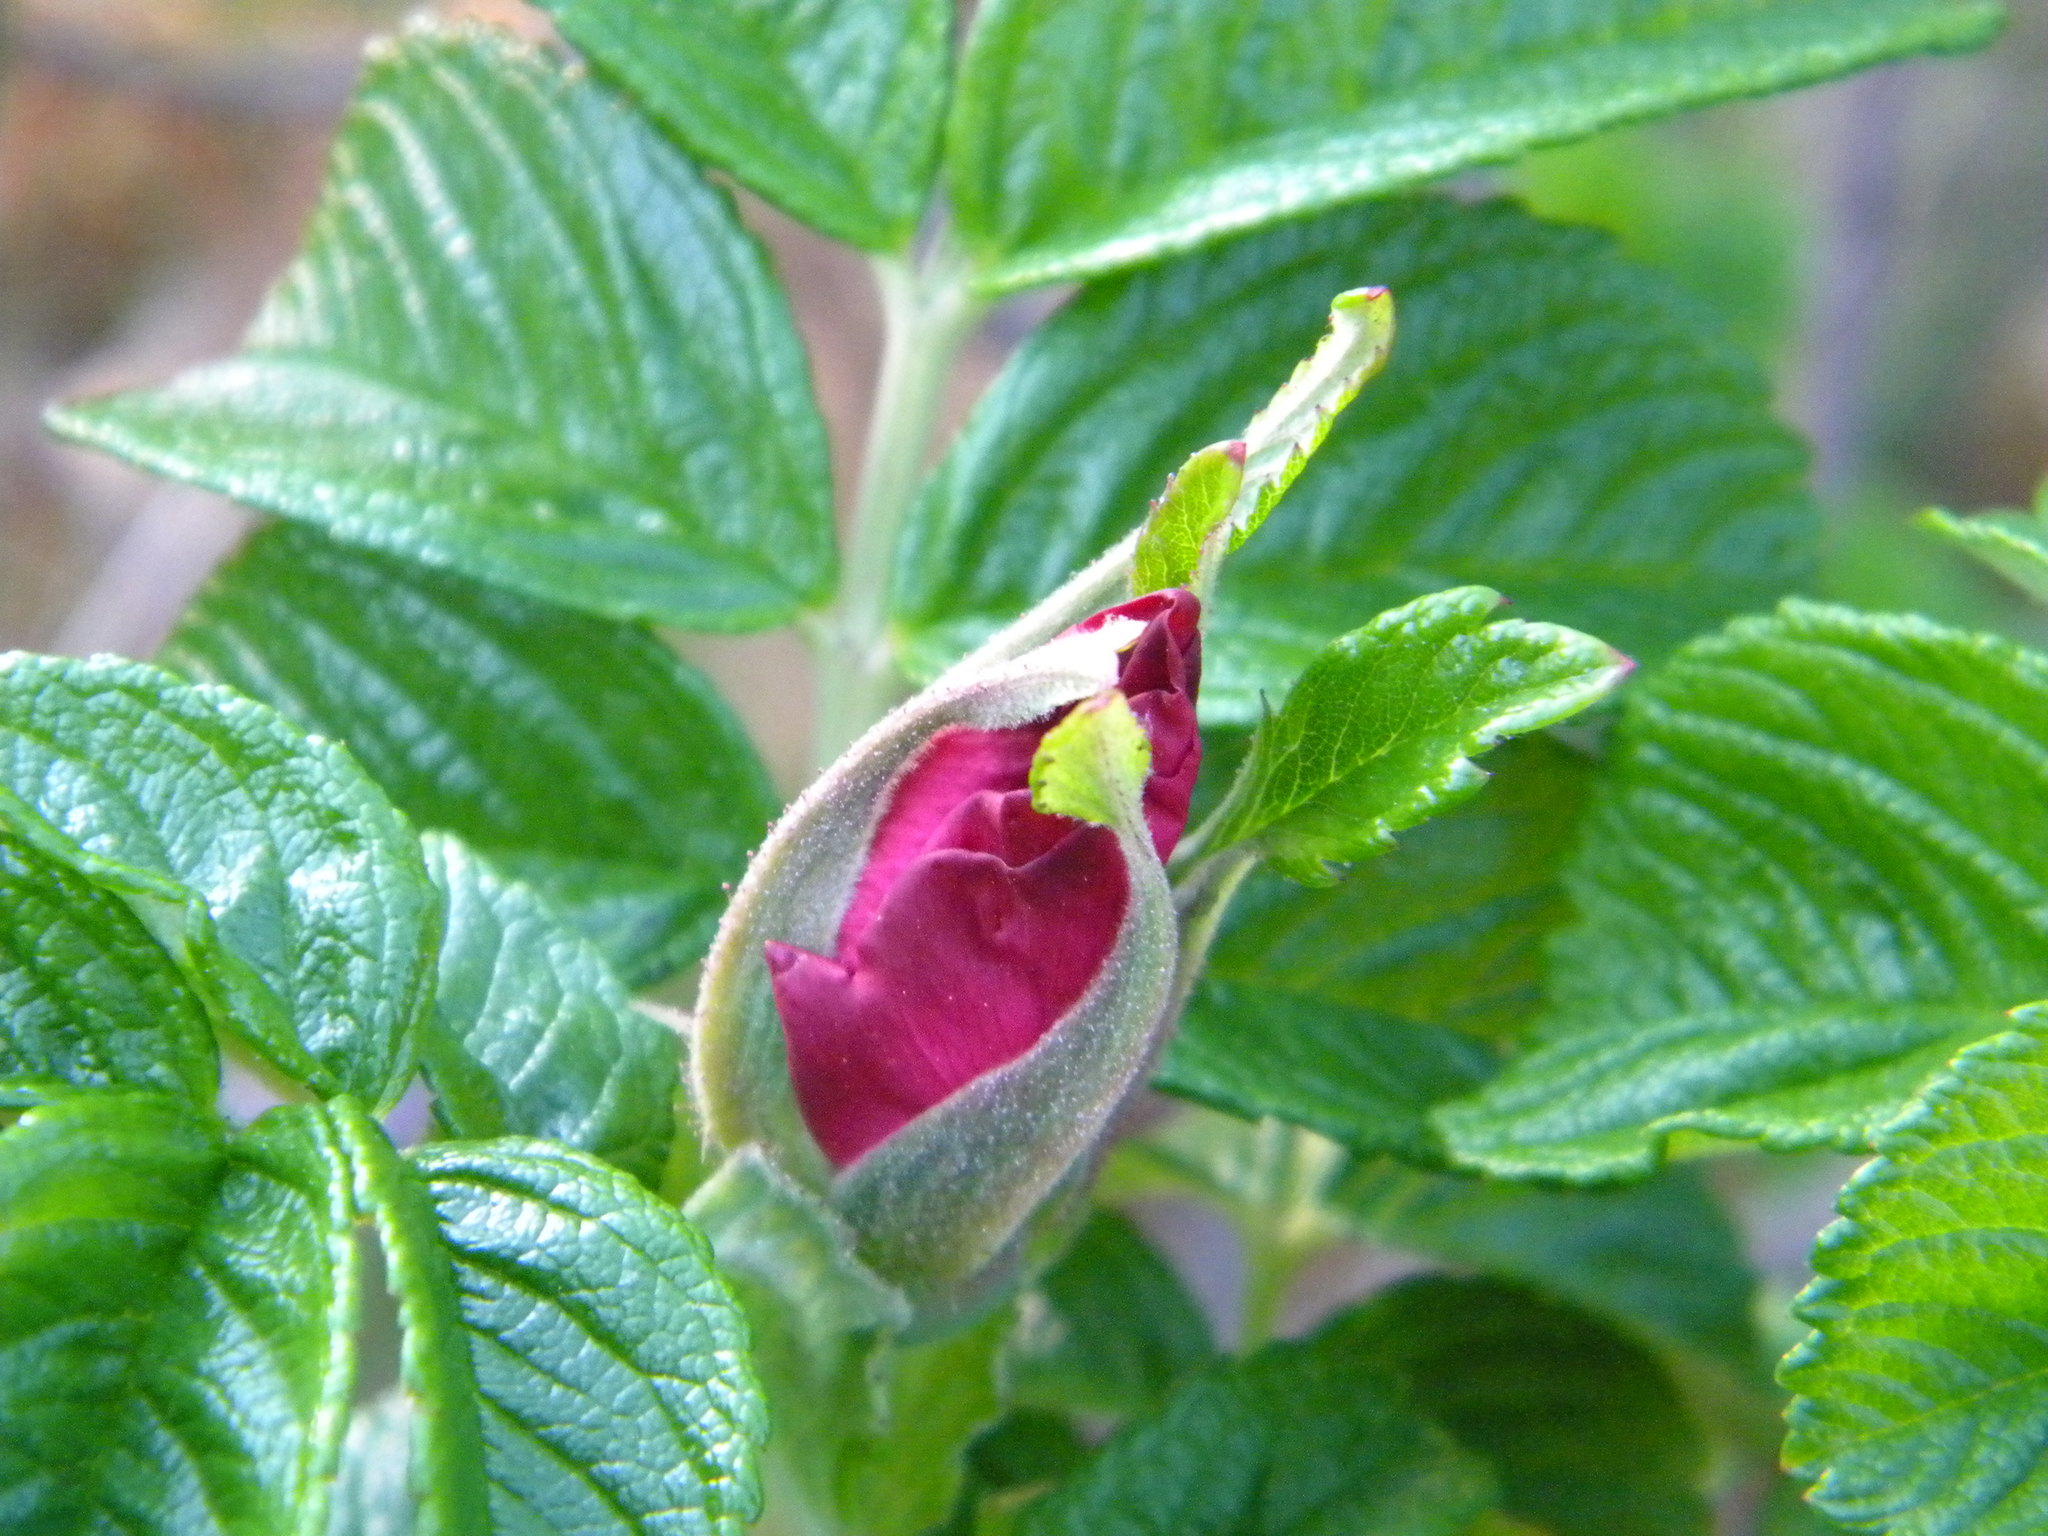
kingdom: Plantae
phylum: Tracheophyta
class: Magnoliopsida
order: Rosales
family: Rosaceae
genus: Rosa
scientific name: Rosa rugosa
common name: Japanese rose
